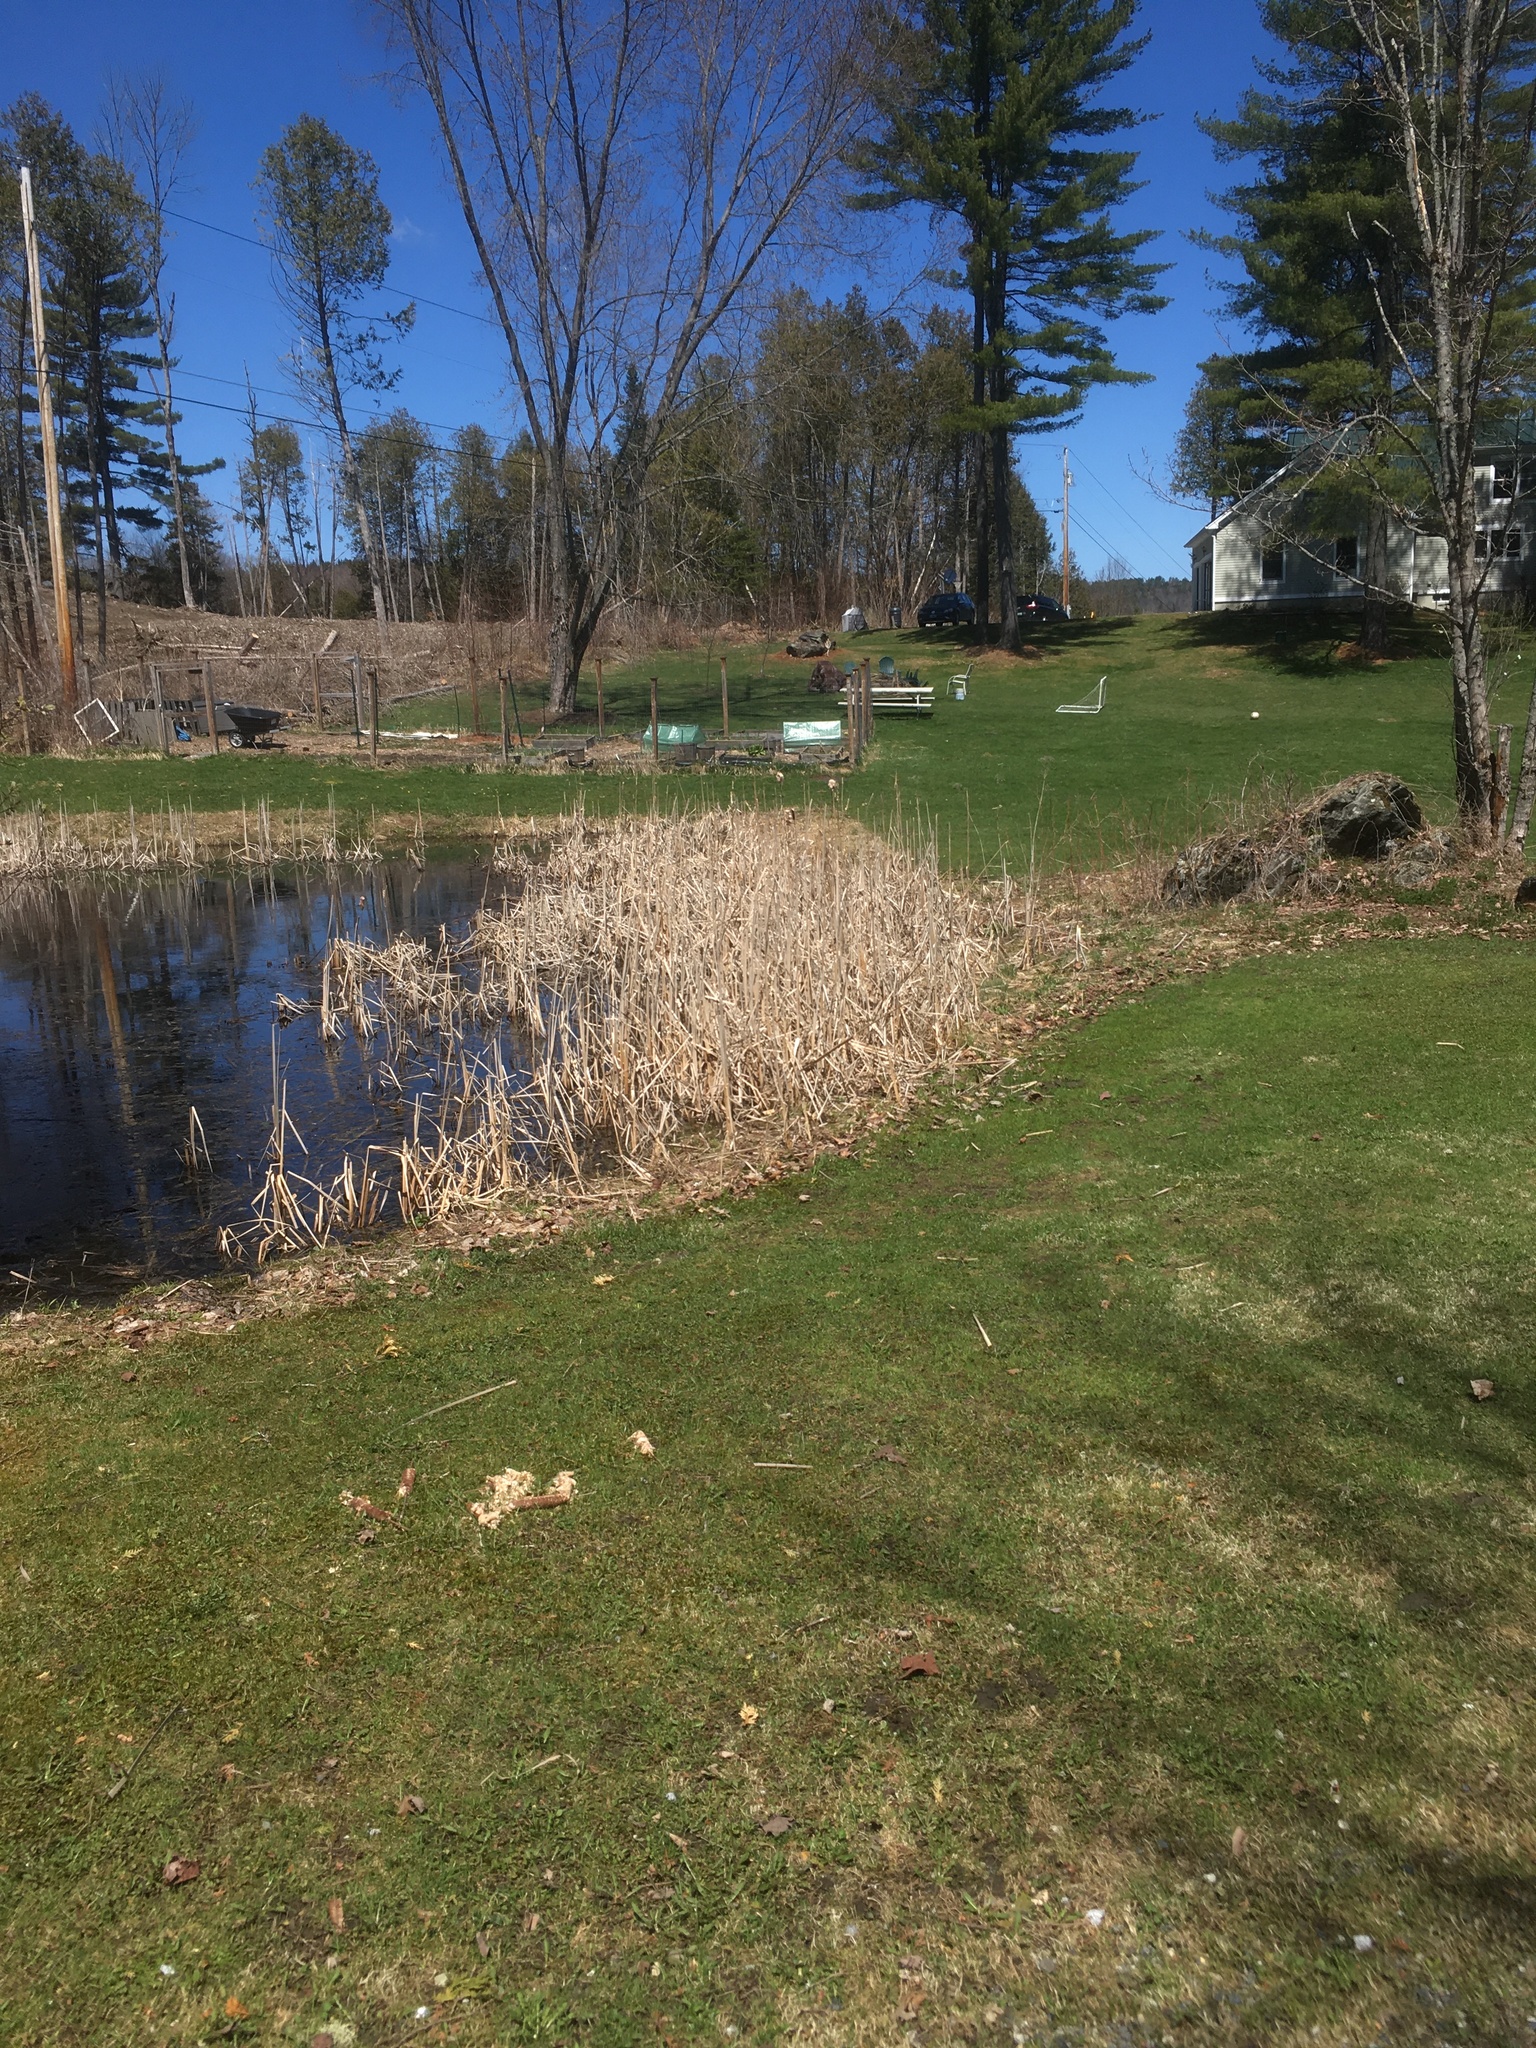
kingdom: Plantae
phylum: Tracheophyta
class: Liliopsida
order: Poales
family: Typhaceae
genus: Typha
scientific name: Typha
